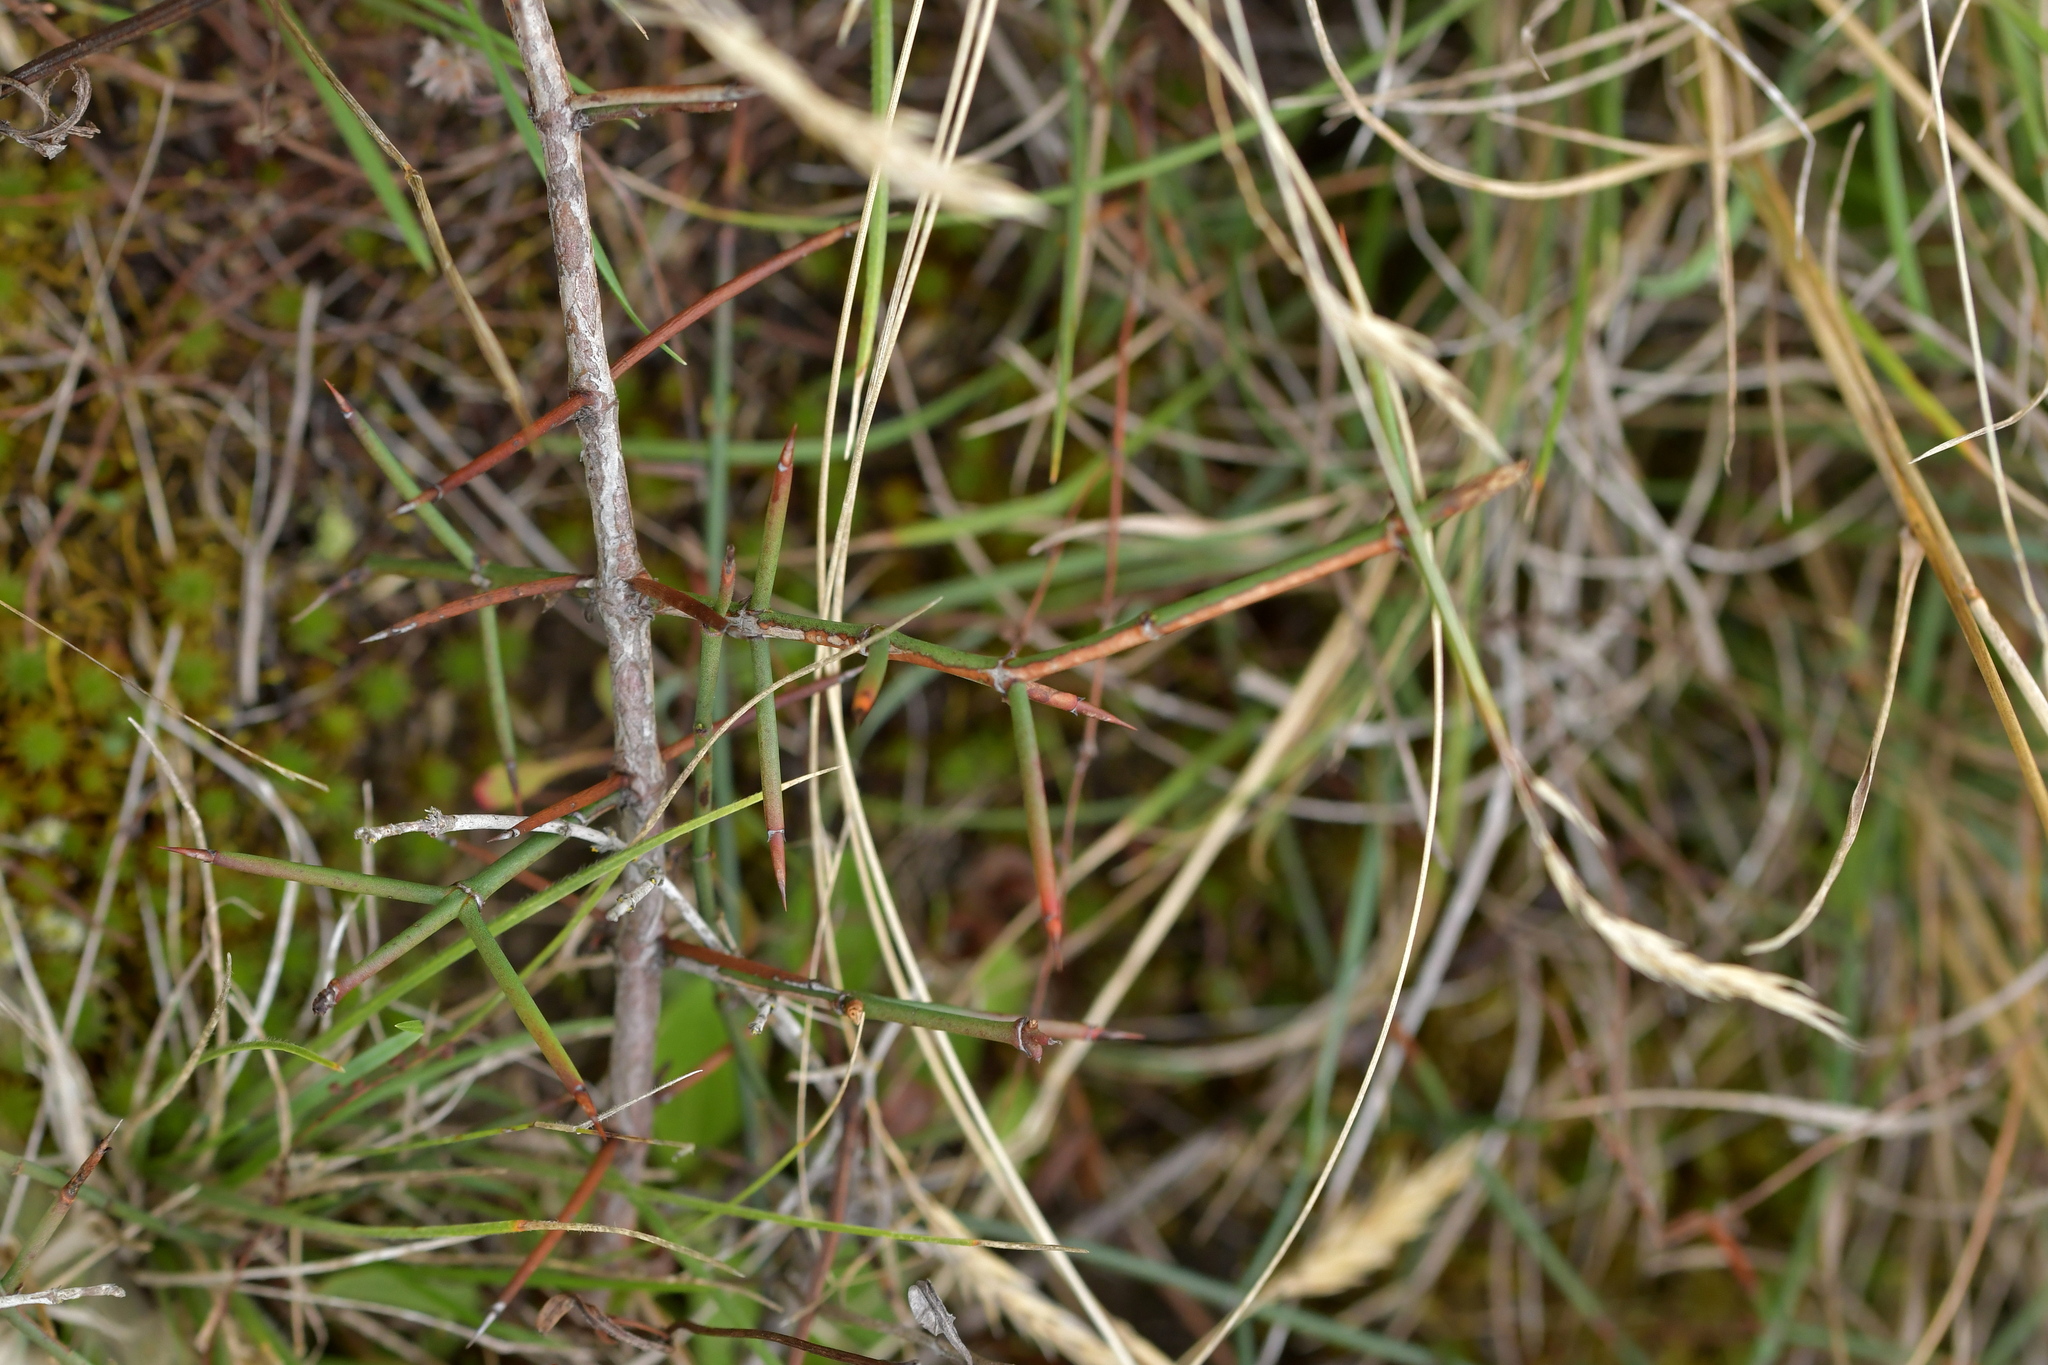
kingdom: Plantae
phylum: Tracheophyta
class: Magnoliopsida
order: Rosales
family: Rhamnaceae
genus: Discaria
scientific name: Discaria toumatou
